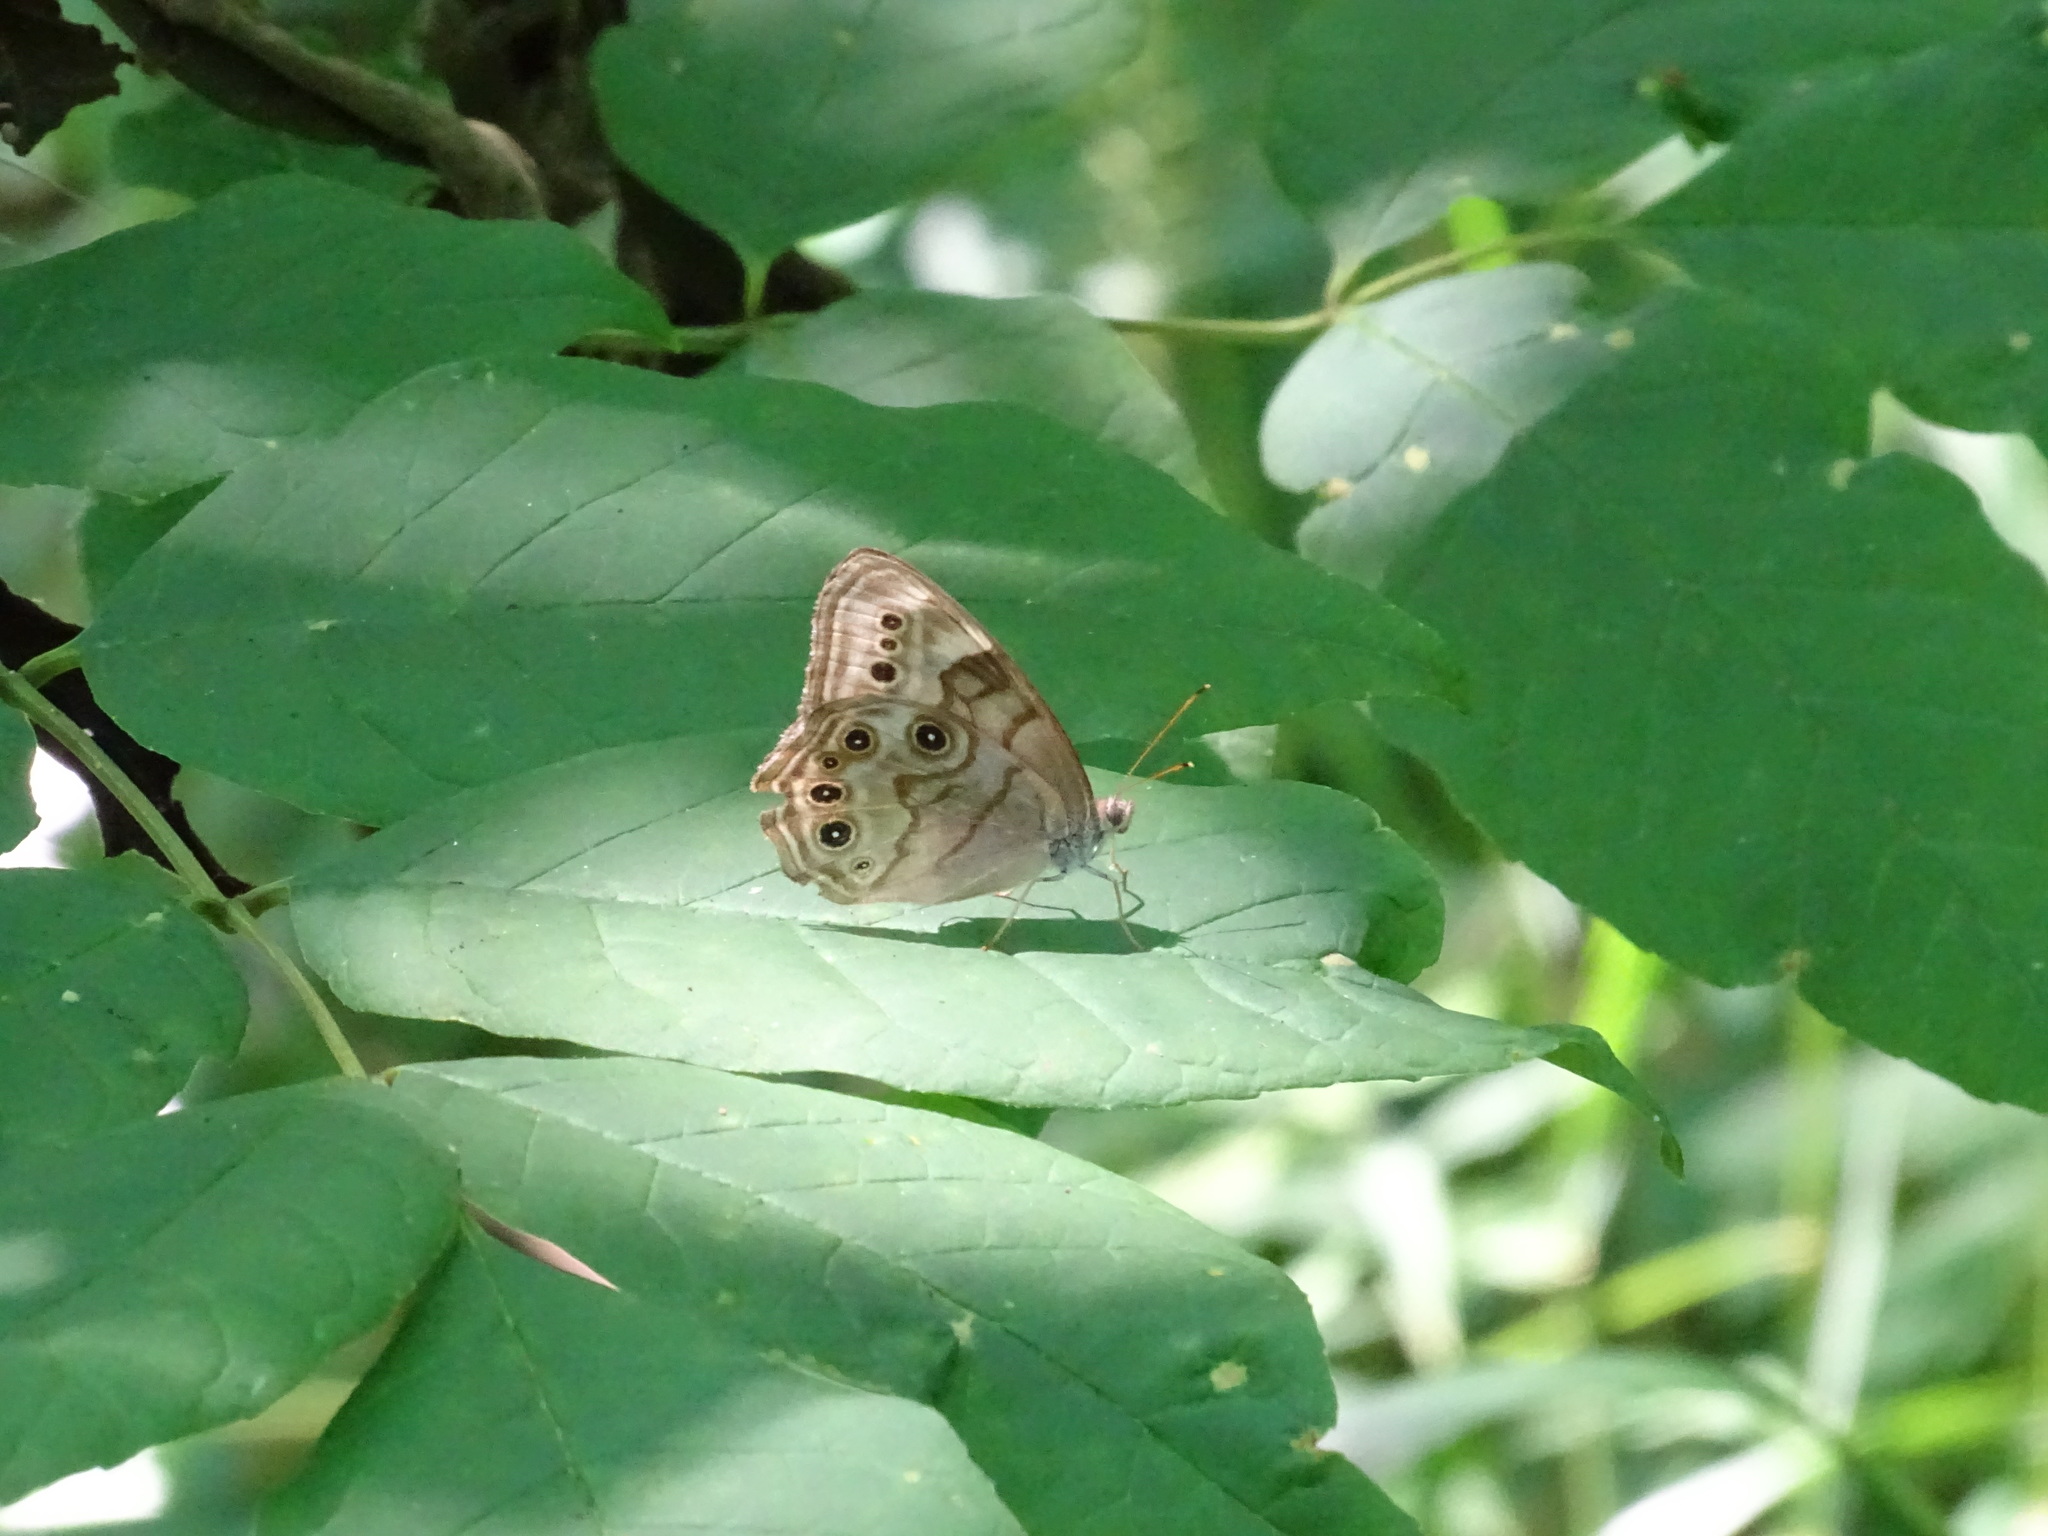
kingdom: Animalia
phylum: Arthropoda
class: Insecta
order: Lepidoptera
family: Nymphalidae
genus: Lethe
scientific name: Lethe anthedon
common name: Northern pearly-eye
